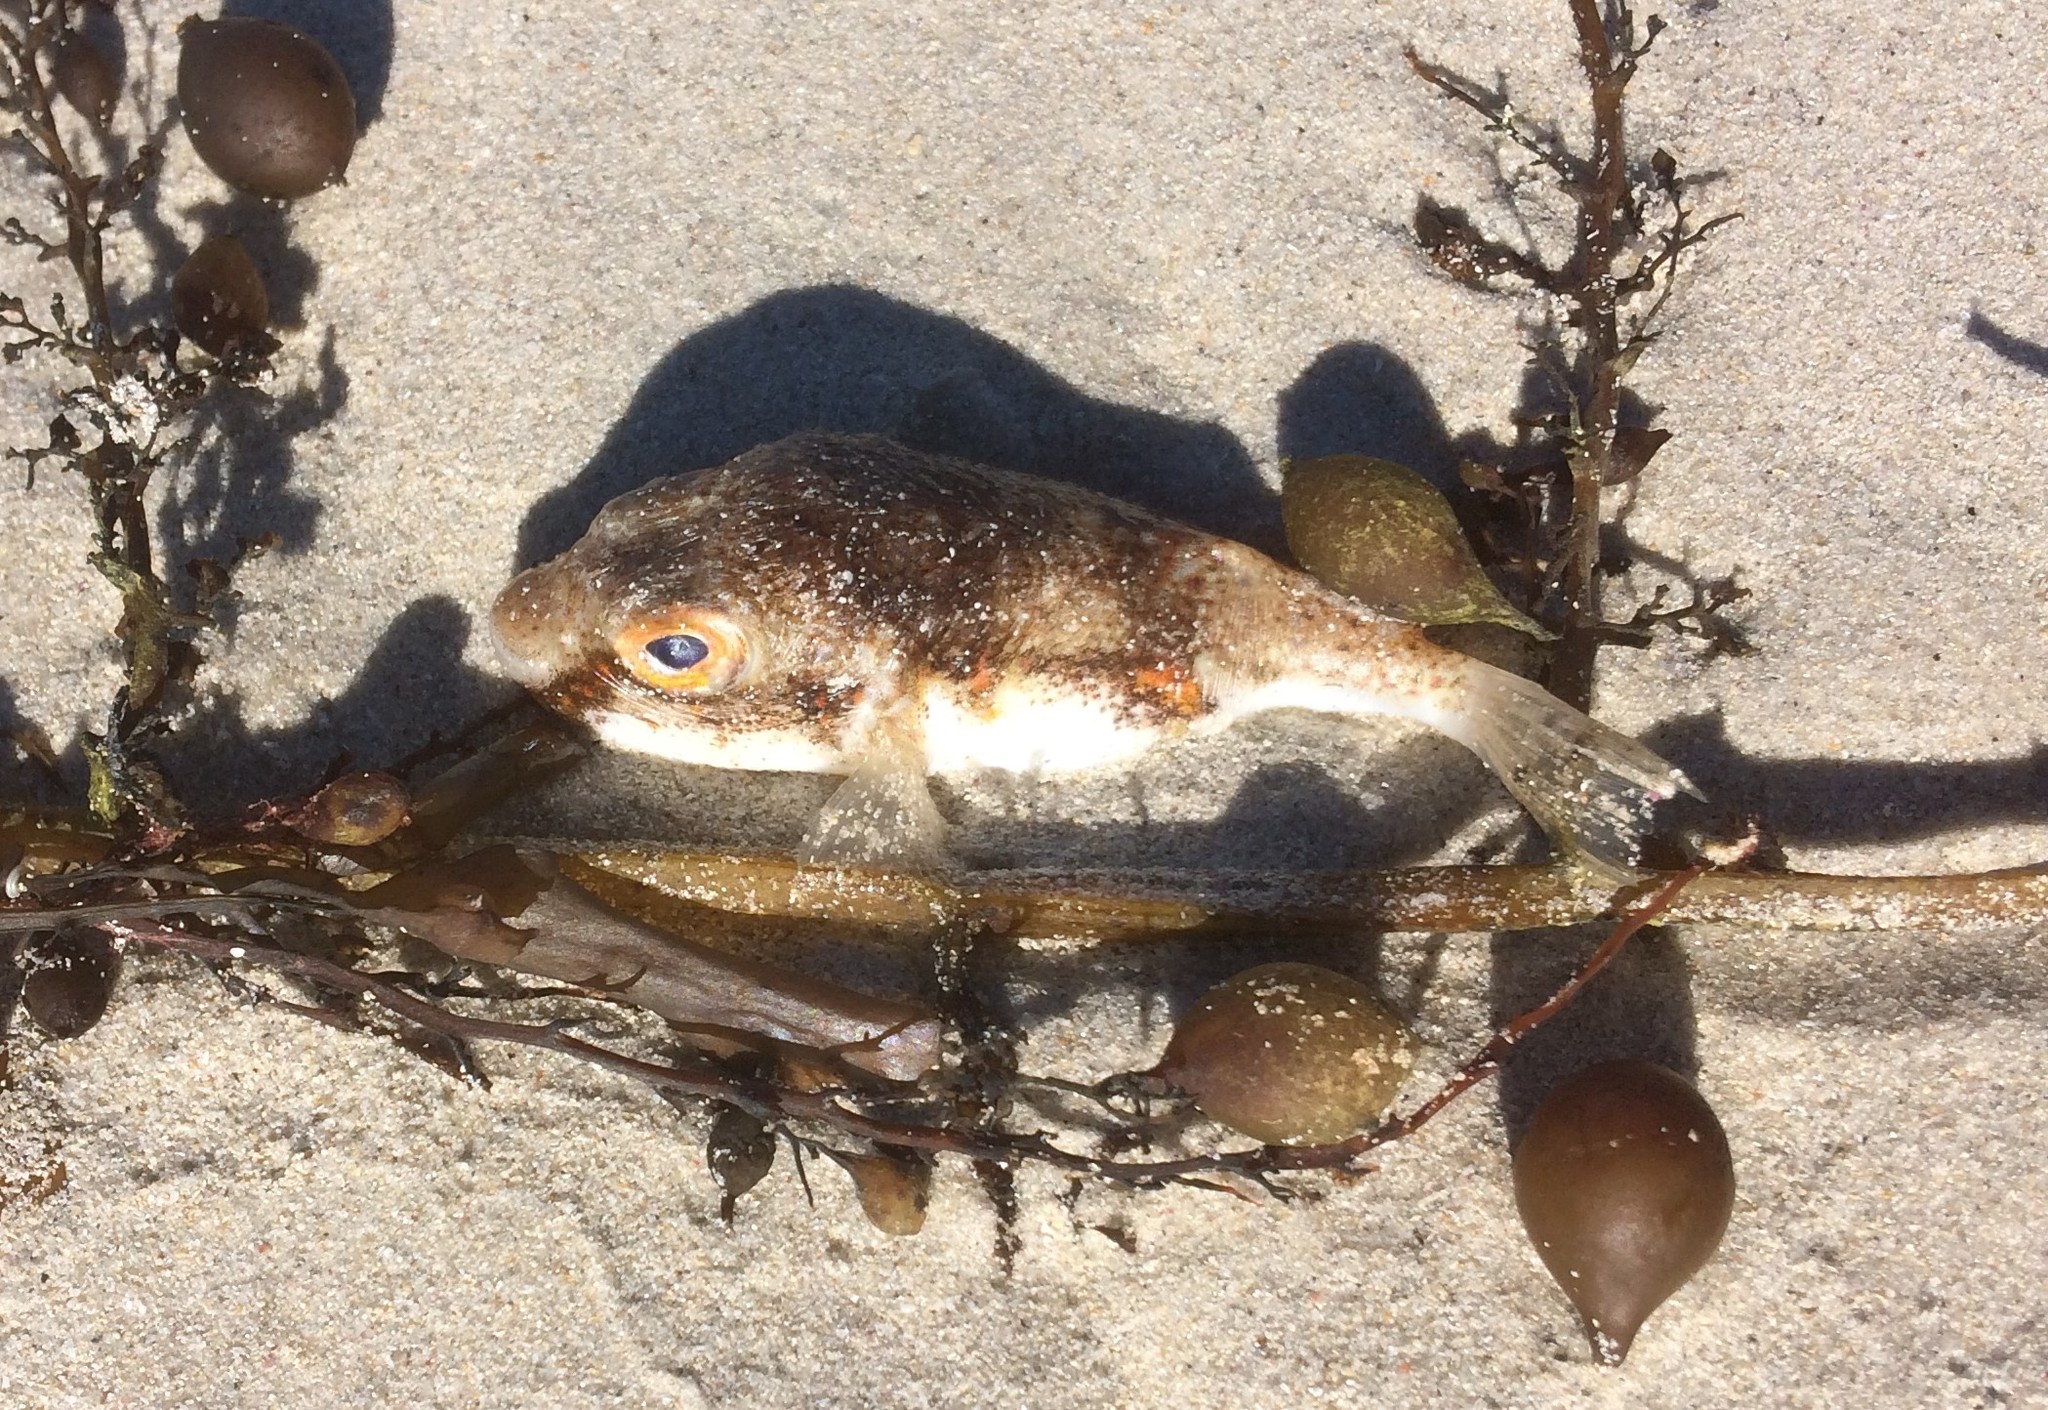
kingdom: Animalia
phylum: Chordata
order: Tetraodontiformes
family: Tetraodontidae
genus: Polyspina
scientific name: Polyspina piosae
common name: Orange-barred pufferfish
